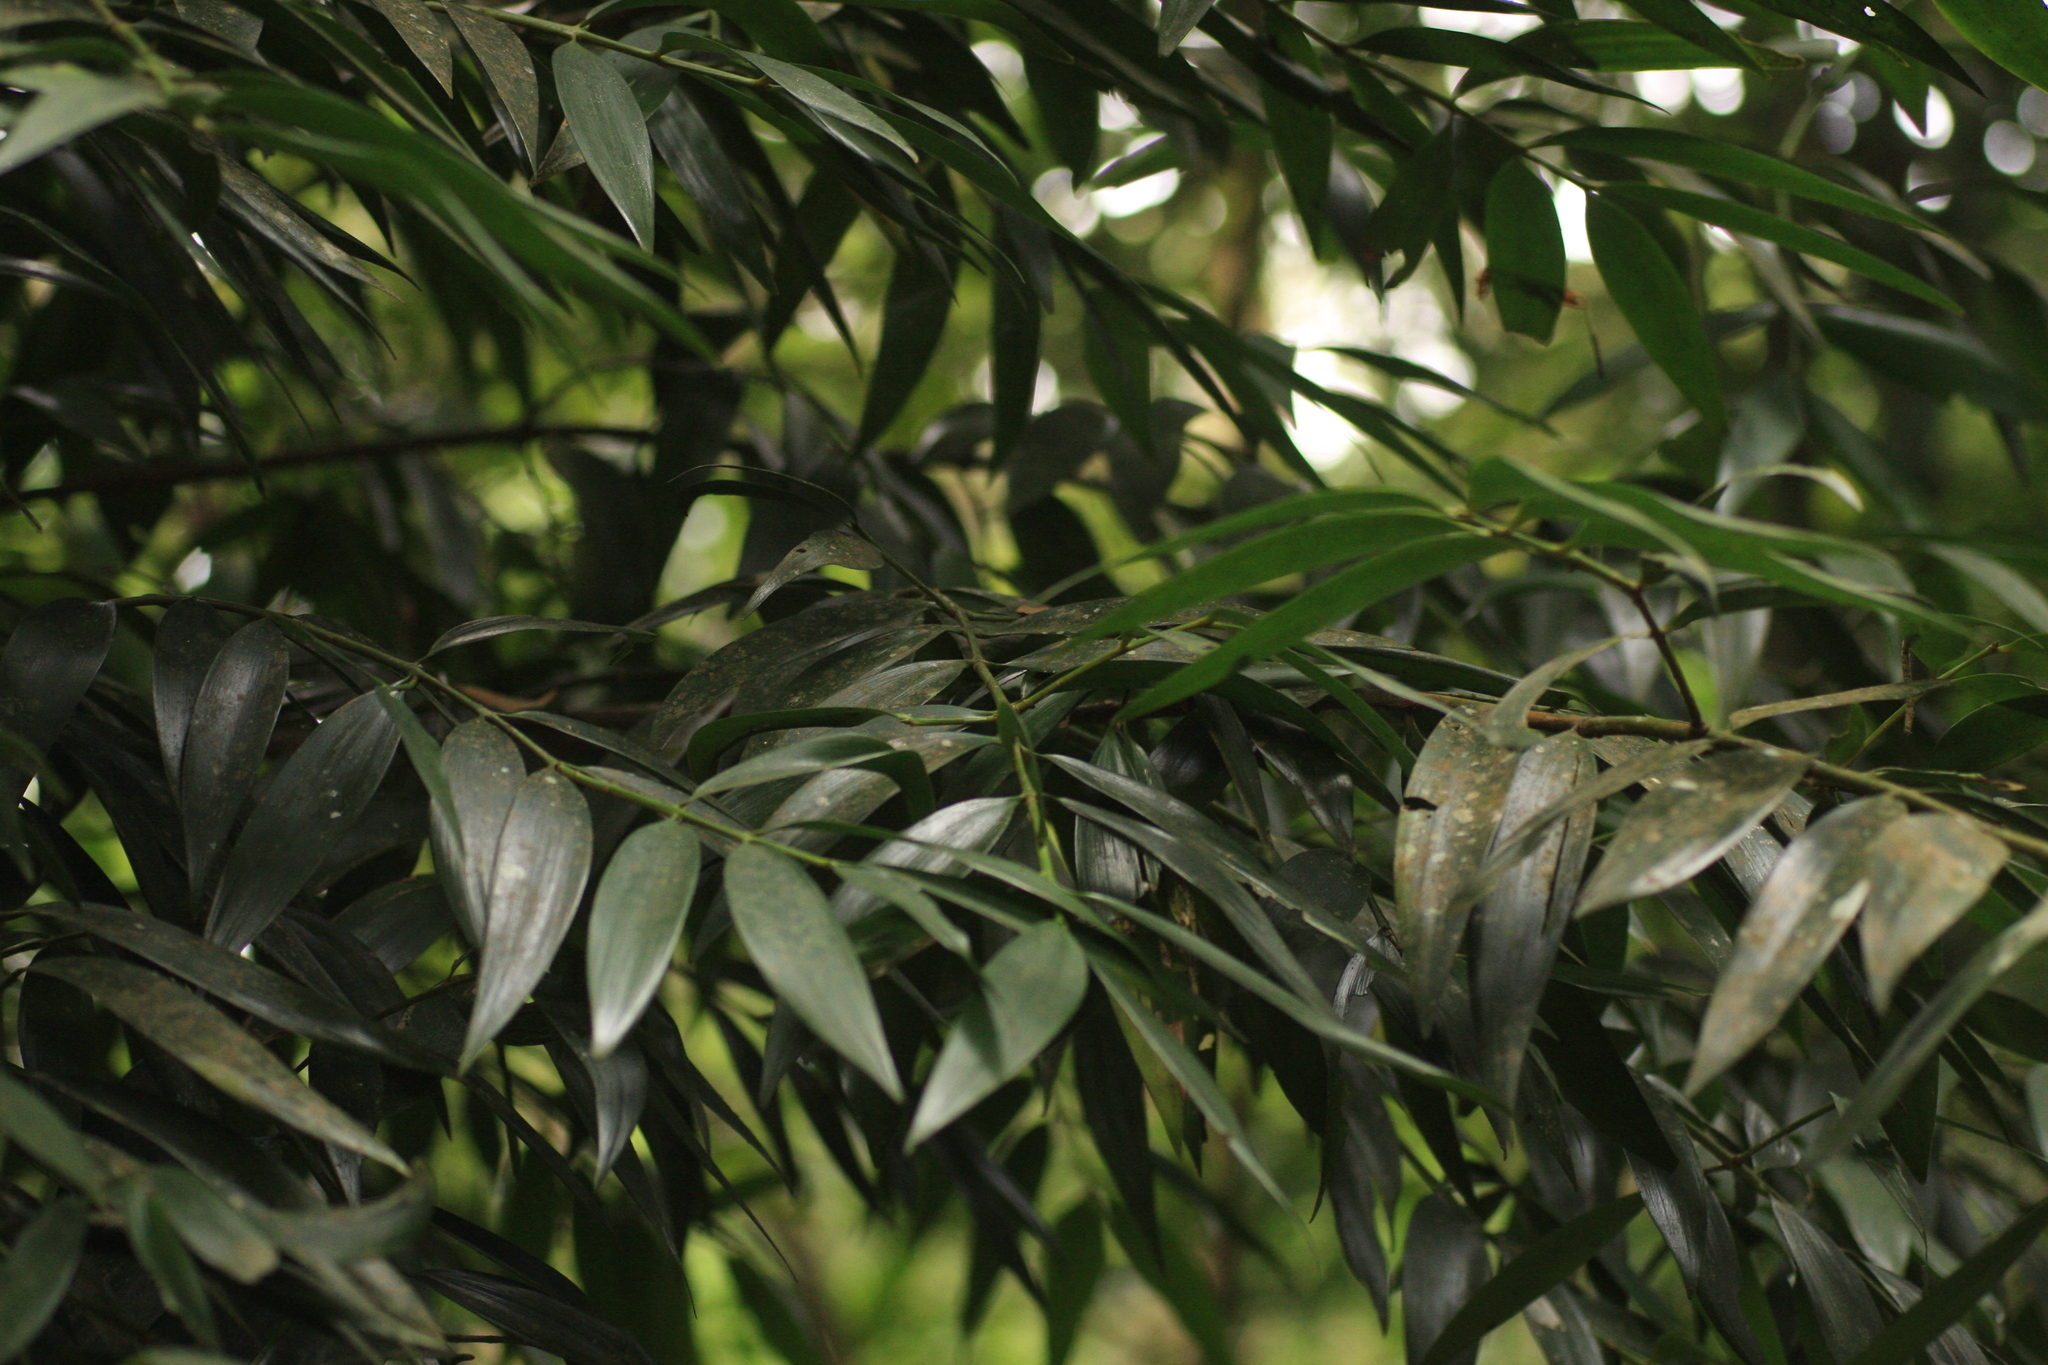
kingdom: Plantae
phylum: Tracheophyta
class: Pinopsida
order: Pinales
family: Podocarpaceae
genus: Nageia
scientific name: Nageia wallichiana
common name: Brown's-pine
